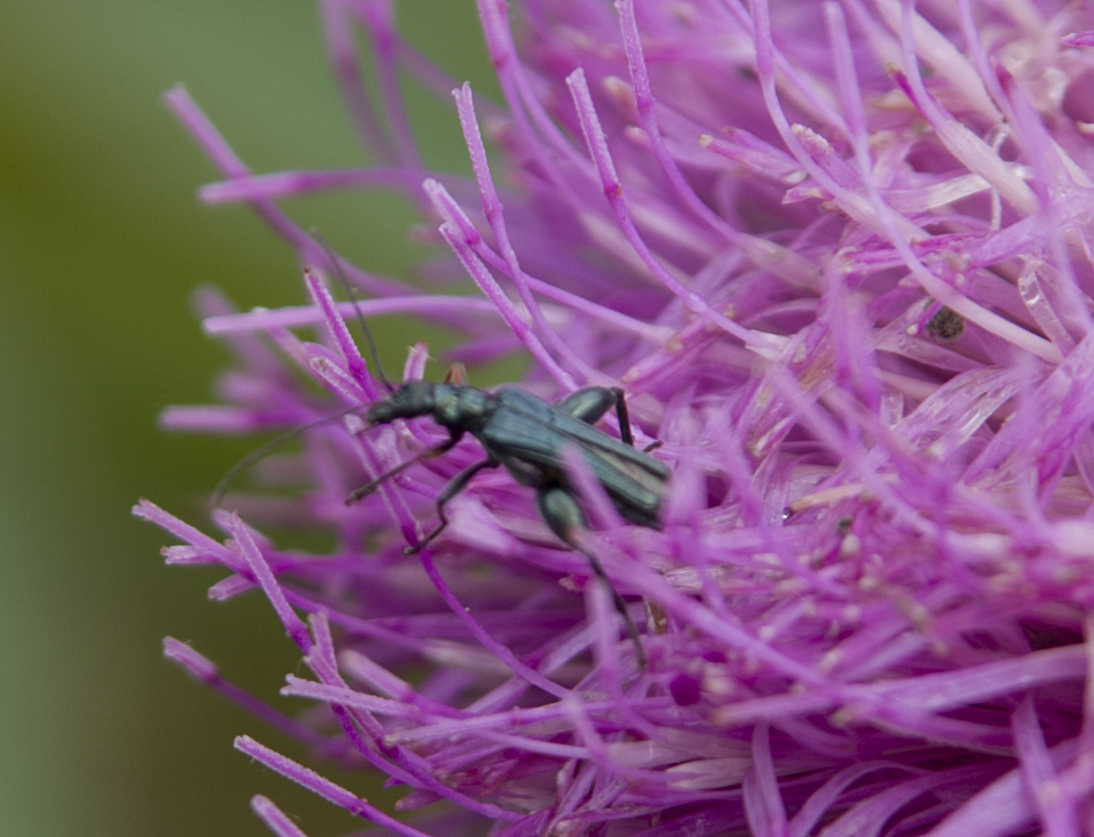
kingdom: Animalia
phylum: Arthropoda
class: Insecta
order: Coleoptera
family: Oedemeridae
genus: Oedemera
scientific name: Oedemera flavipes
